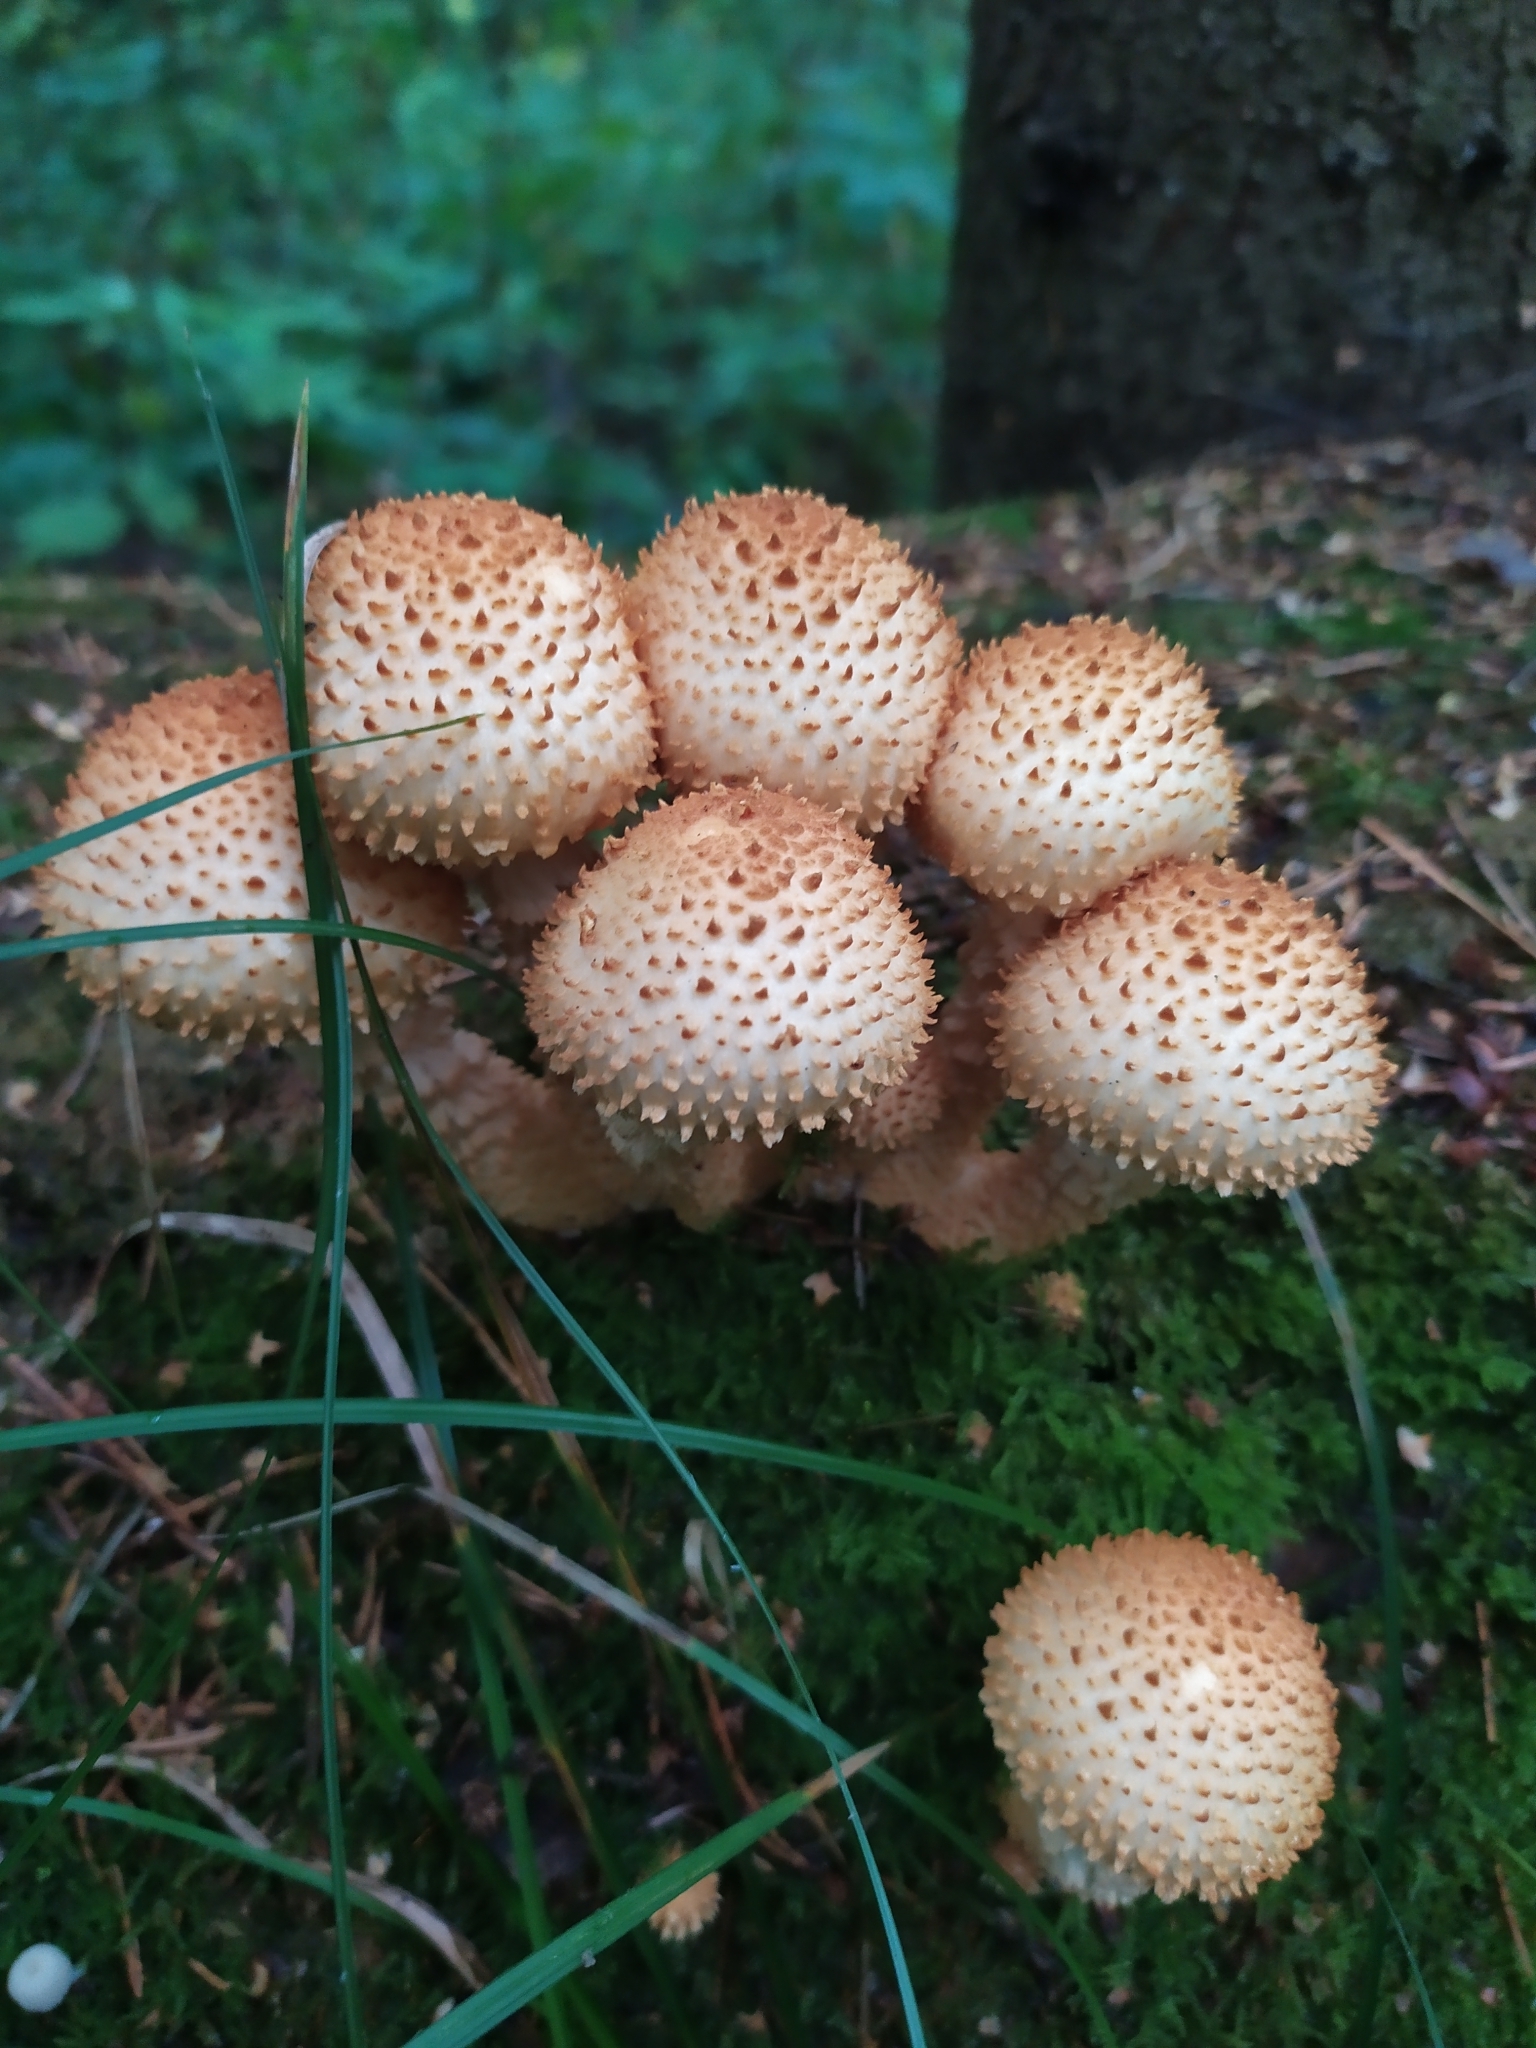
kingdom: Fungi
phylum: Basidiomycota
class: Agaricomycetes
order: Agaricales
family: Strophariaceae
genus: Pholiota
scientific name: Pholiota squarrosa
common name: Shaggy pholiota
